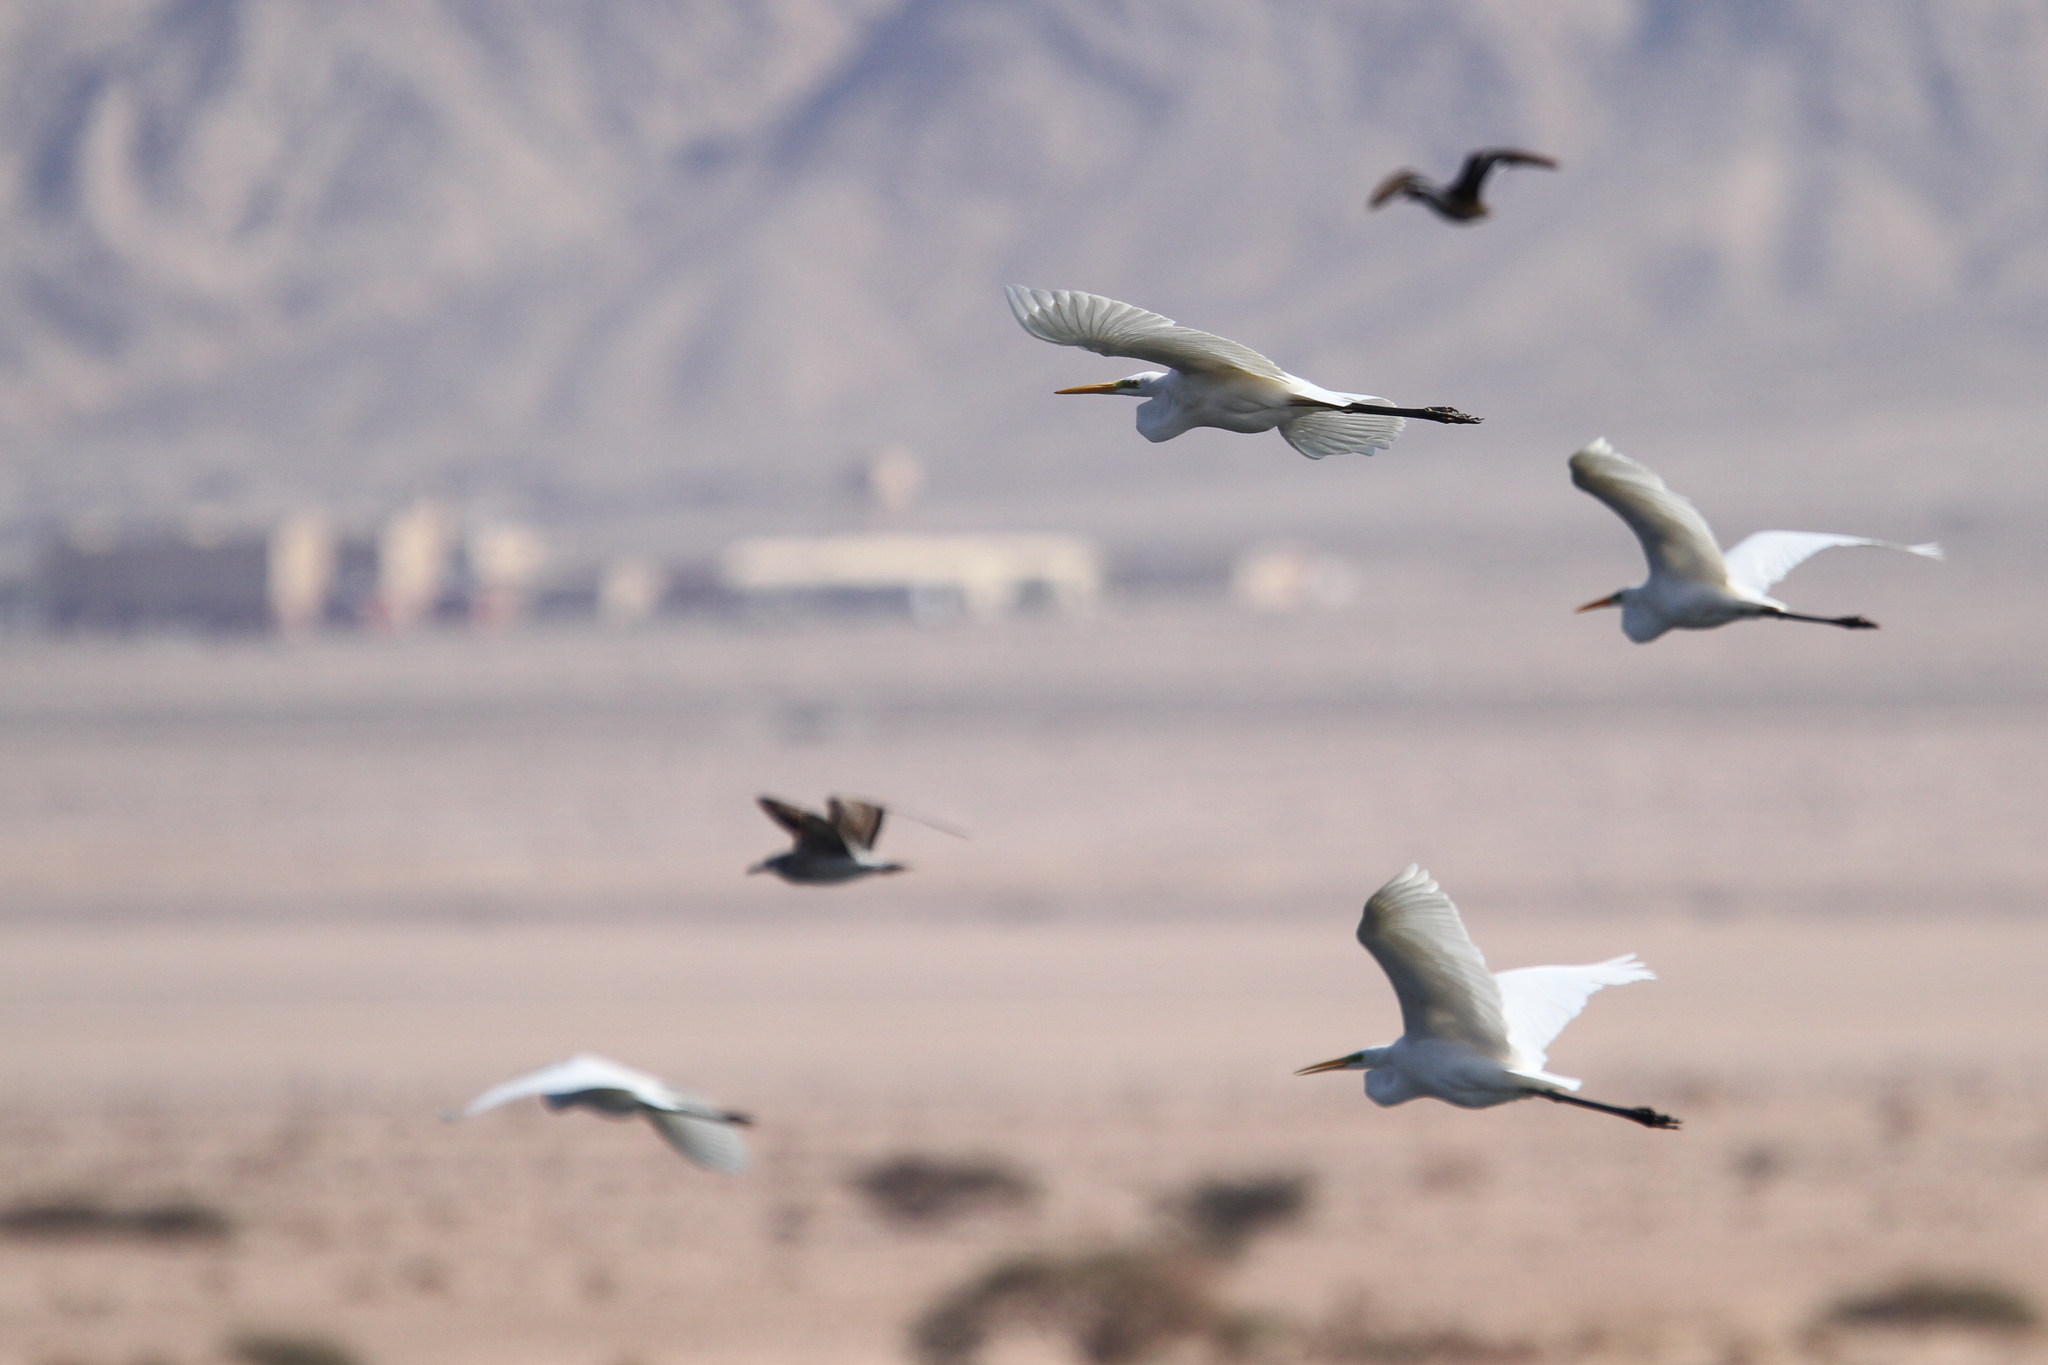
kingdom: Animalia
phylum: Chordata
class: Aves
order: Pelecaniformes
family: Ardeidae
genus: Ardea
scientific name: Ardea alba
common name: Great egret
